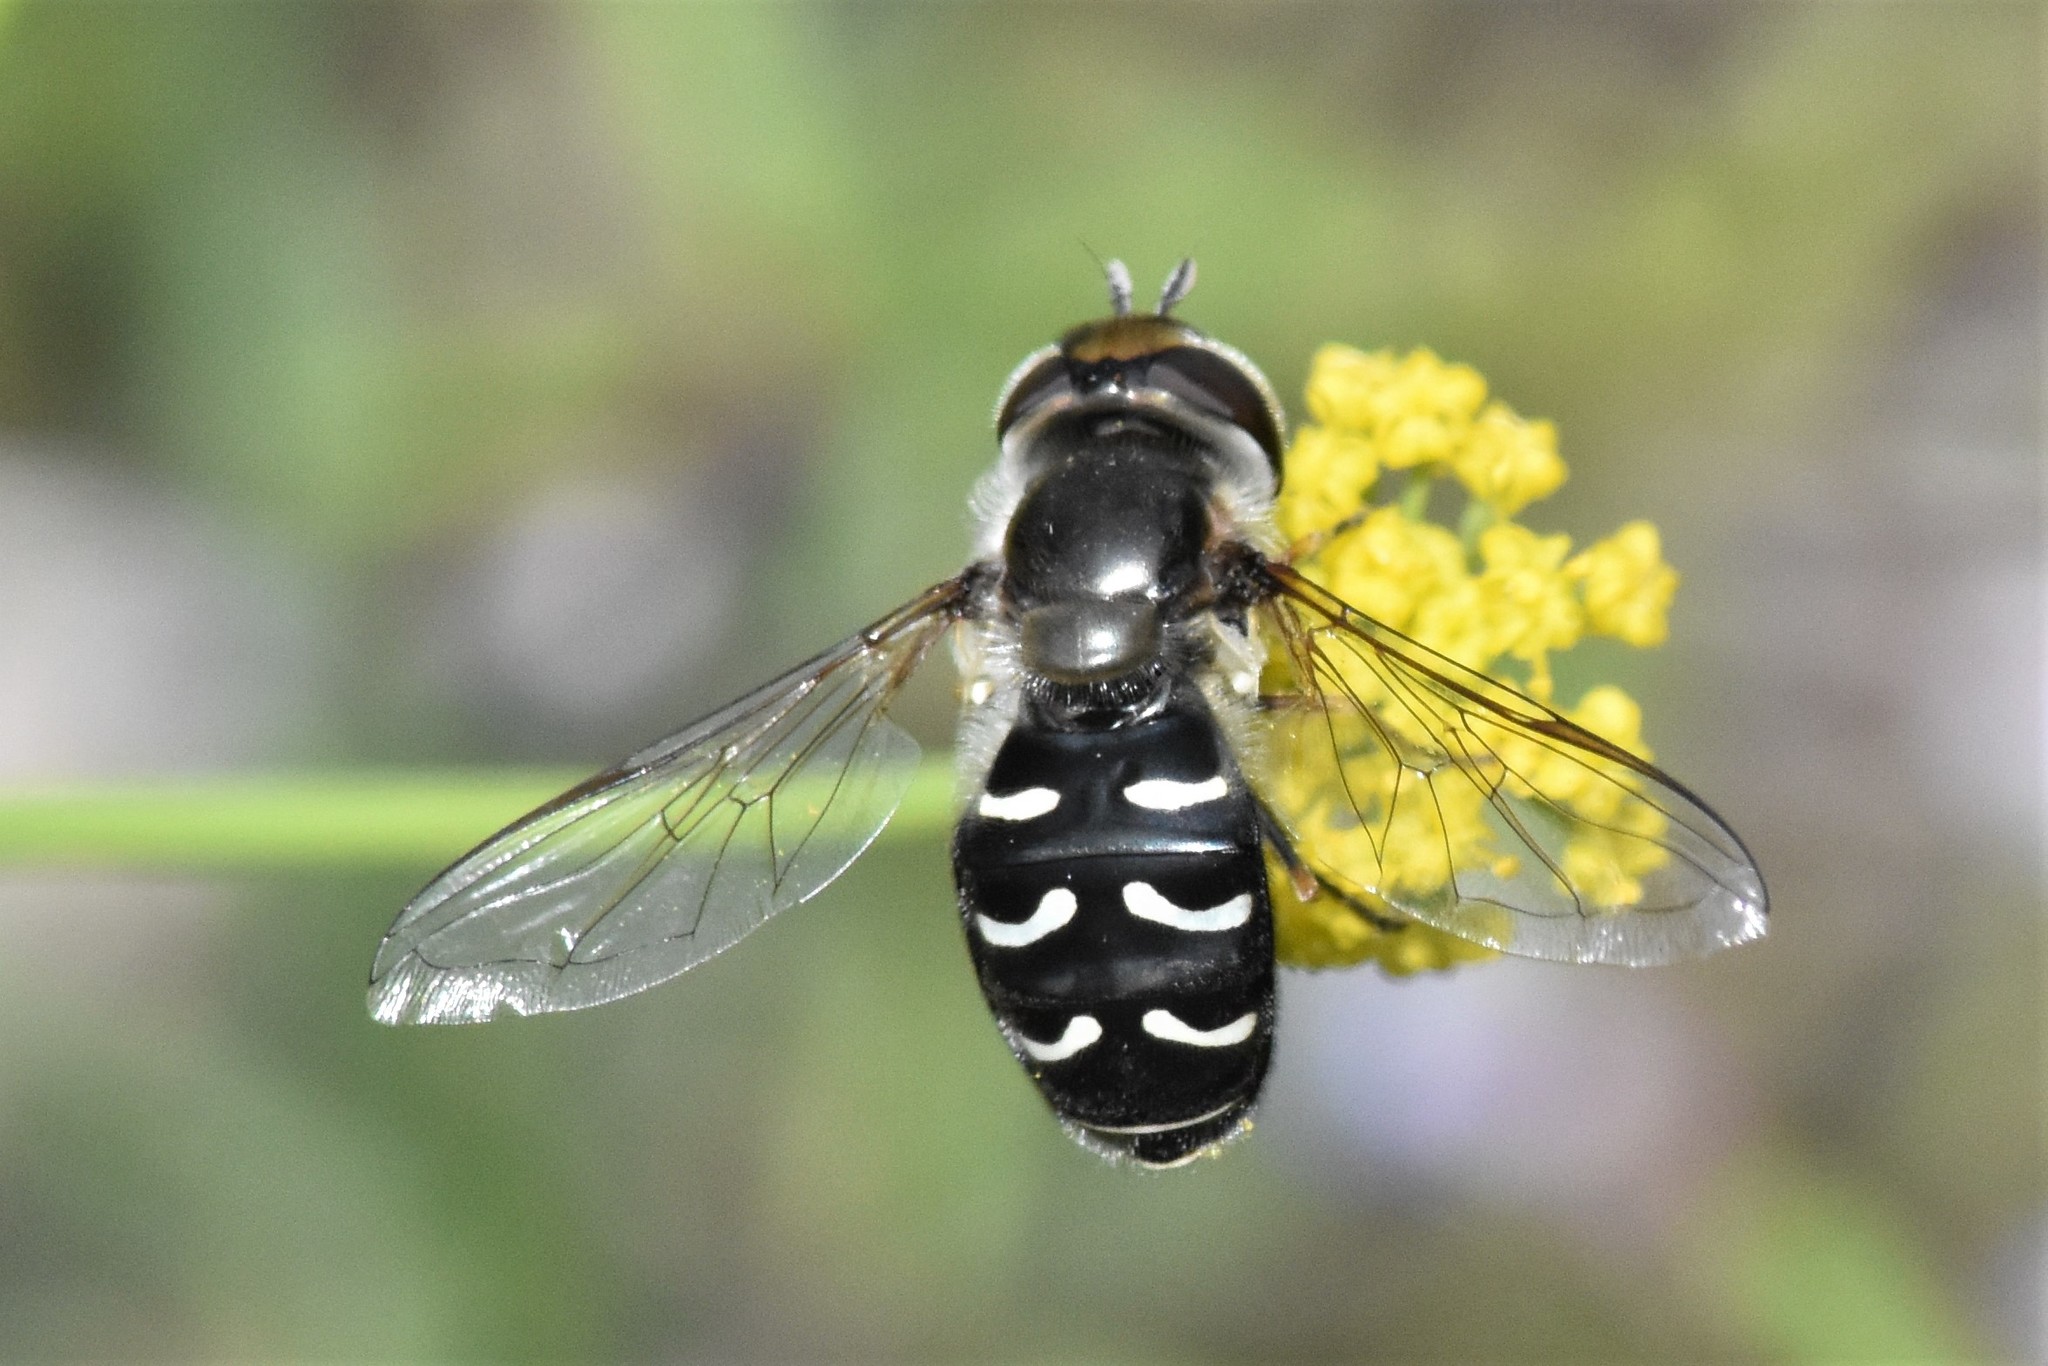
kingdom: Animalia
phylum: Arthropoda
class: Insecta
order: Diptera
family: Syrphidae
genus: Scaeva
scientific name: Scaeva affinis
